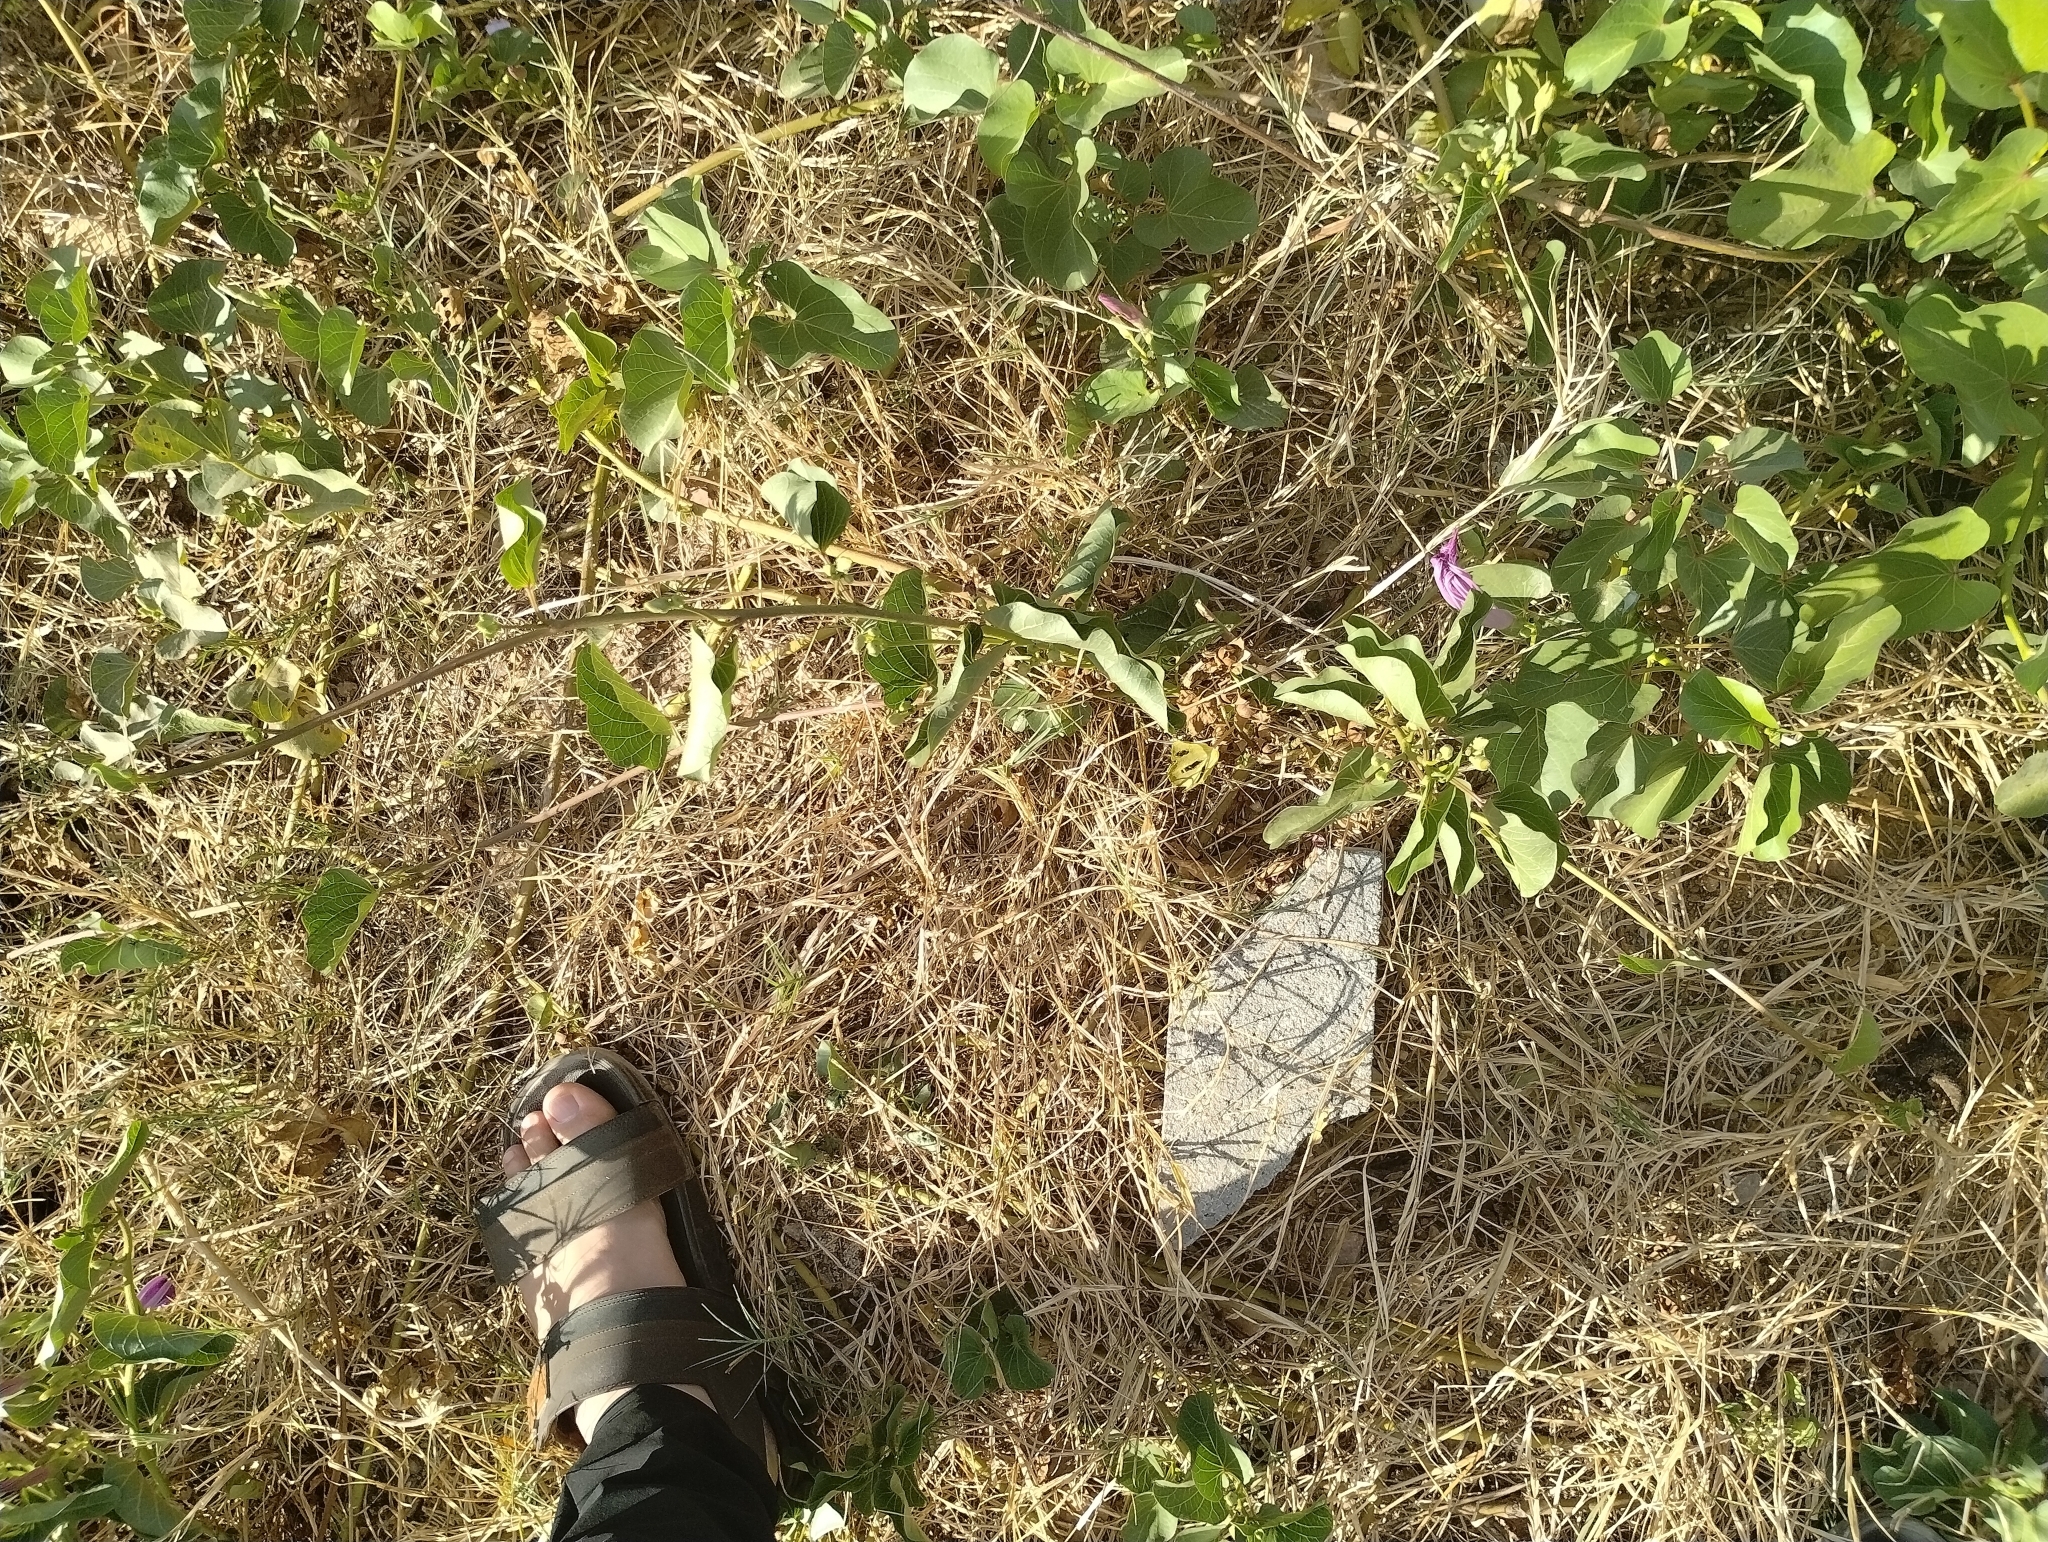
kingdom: Plantae
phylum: Tracheophyta
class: Magnoliopsida
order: Solanales
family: Convolvulaceae
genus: Ipomoea
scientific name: Ipomoea asarifolia
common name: Ginger-leaf morning-glory
